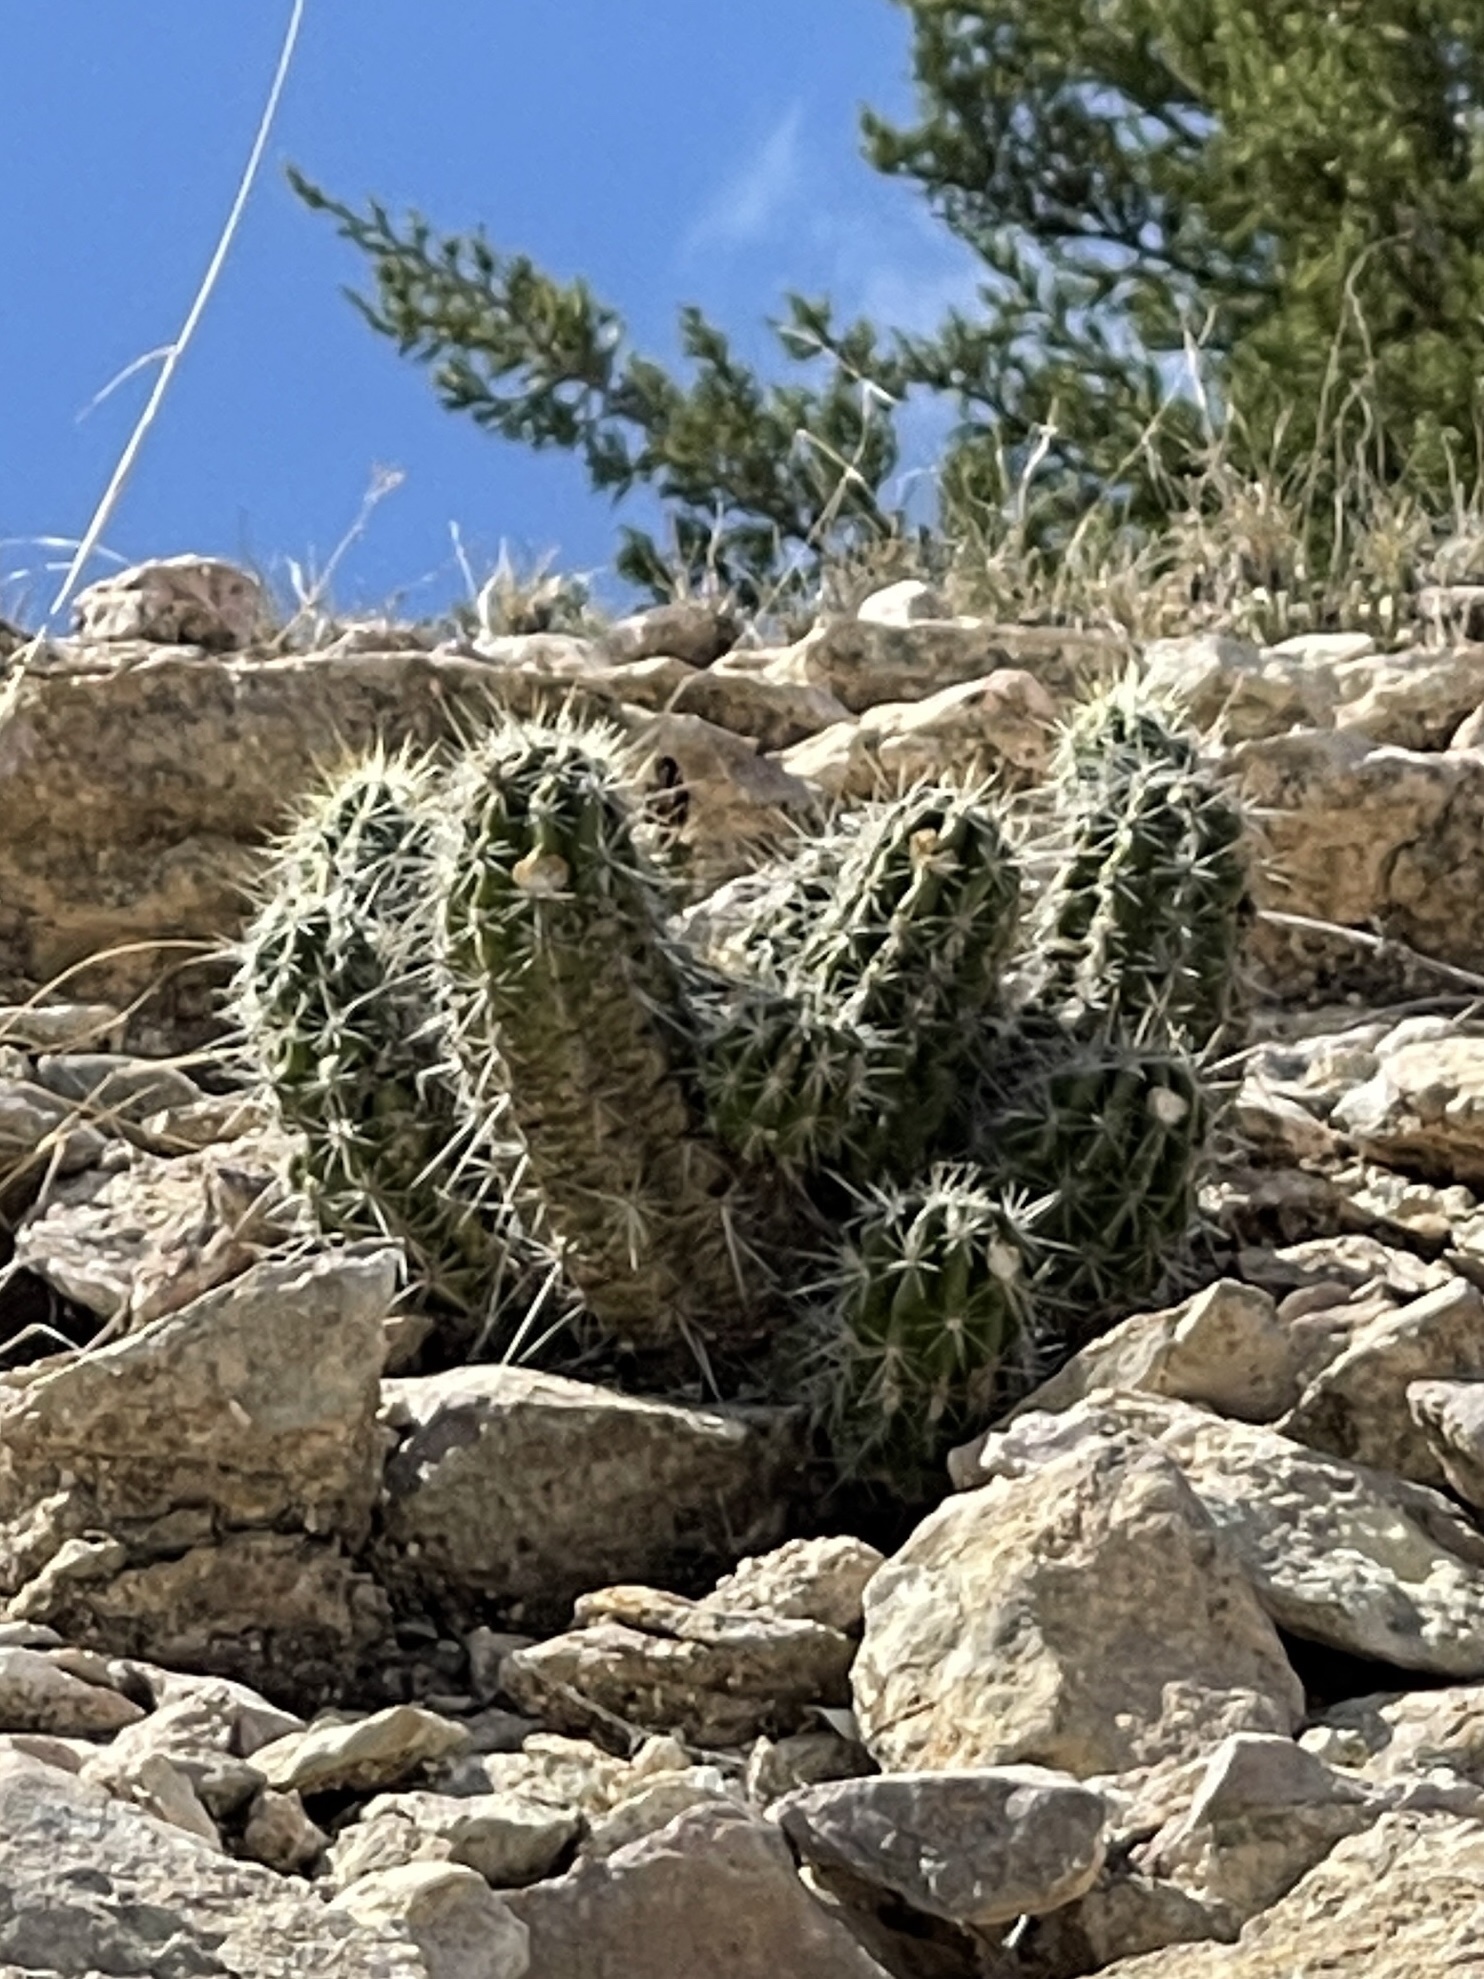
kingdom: Plantae
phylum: Tracheophyta
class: Magnoliopsida
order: Caryophyllales
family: Cactaceae
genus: Echinocereus
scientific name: Echinocereus enneacanthus
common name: Pitaya
